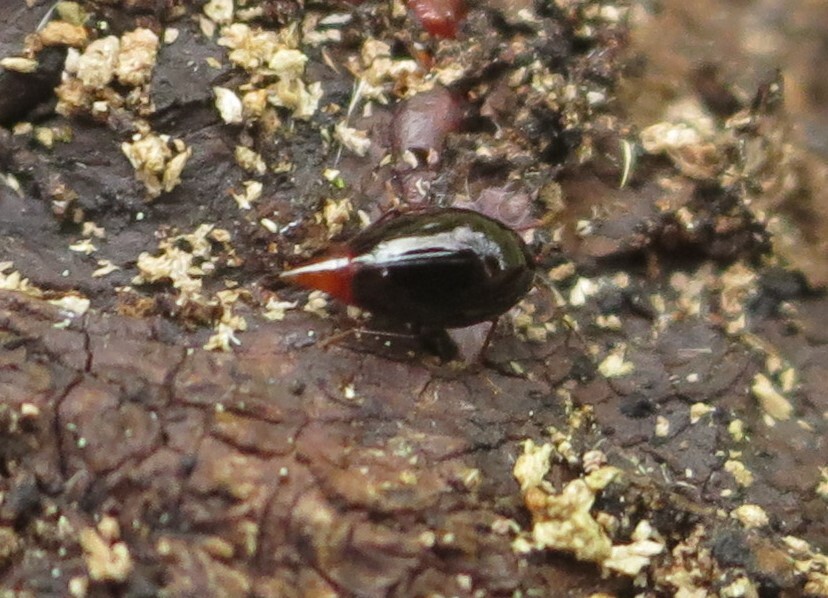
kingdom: Animalia
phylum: Arthropoda
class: Insecta
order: Coleoptera
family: Staphylinidae
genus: Brachynopus
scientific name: Brachynopus scutellaris
